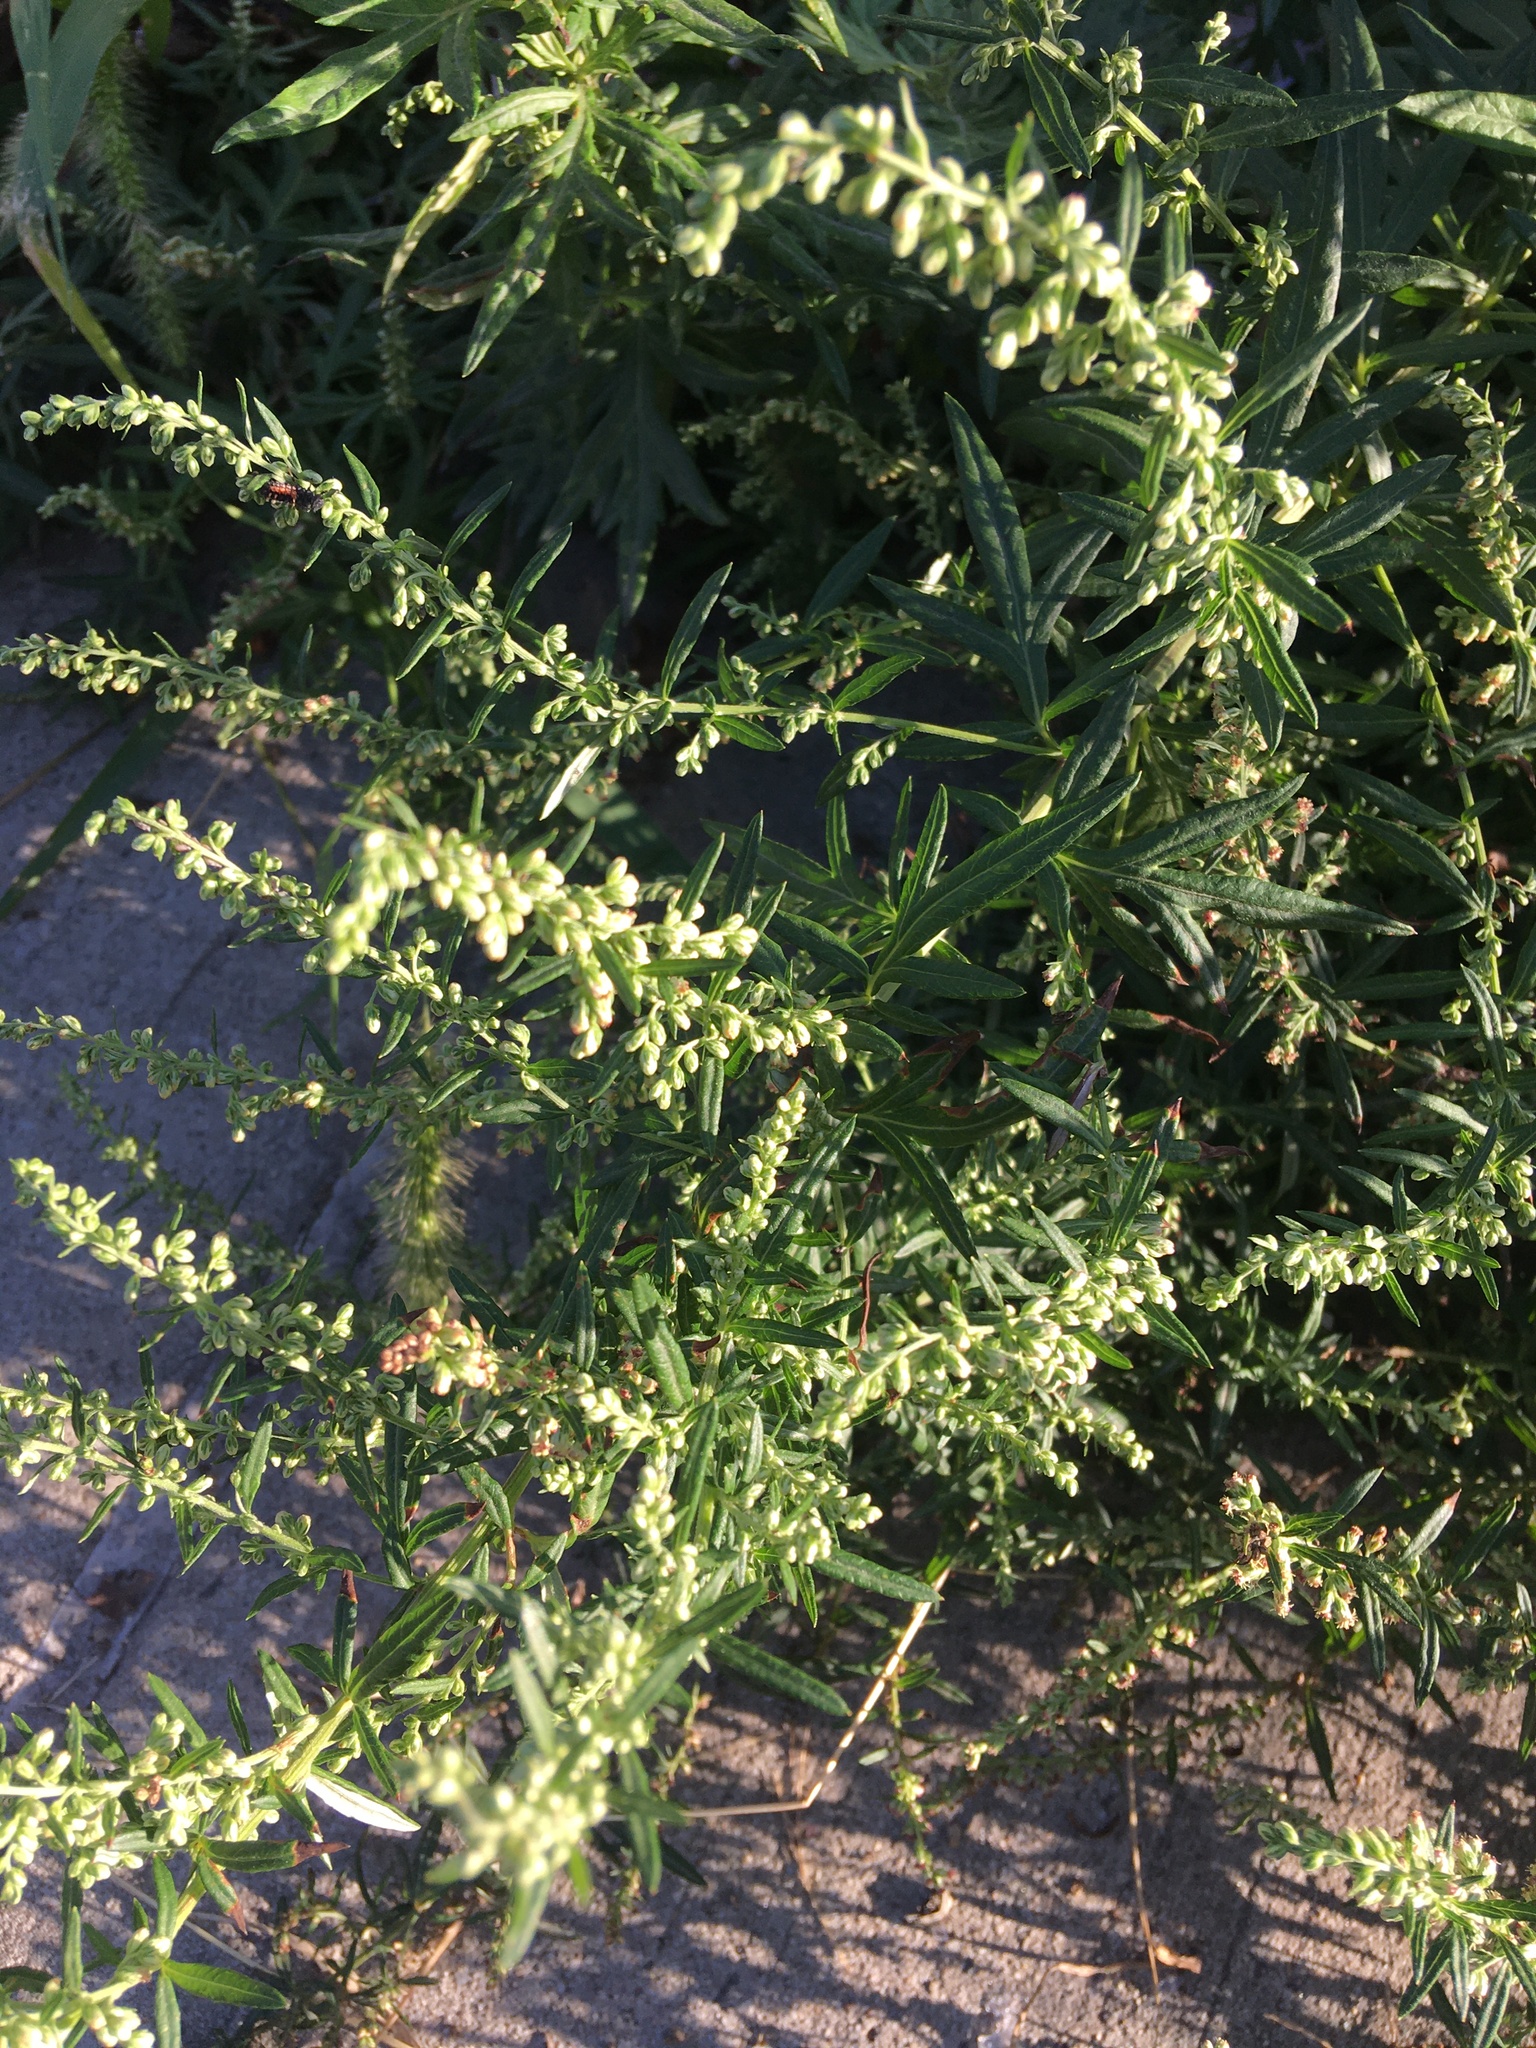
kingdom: Plantae
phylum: Tracheophyta
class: Magnoliopsida
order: Asterales
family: Asteraceae
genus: Artemisia
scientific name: Artemisia vulgaris
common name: Mugwort
